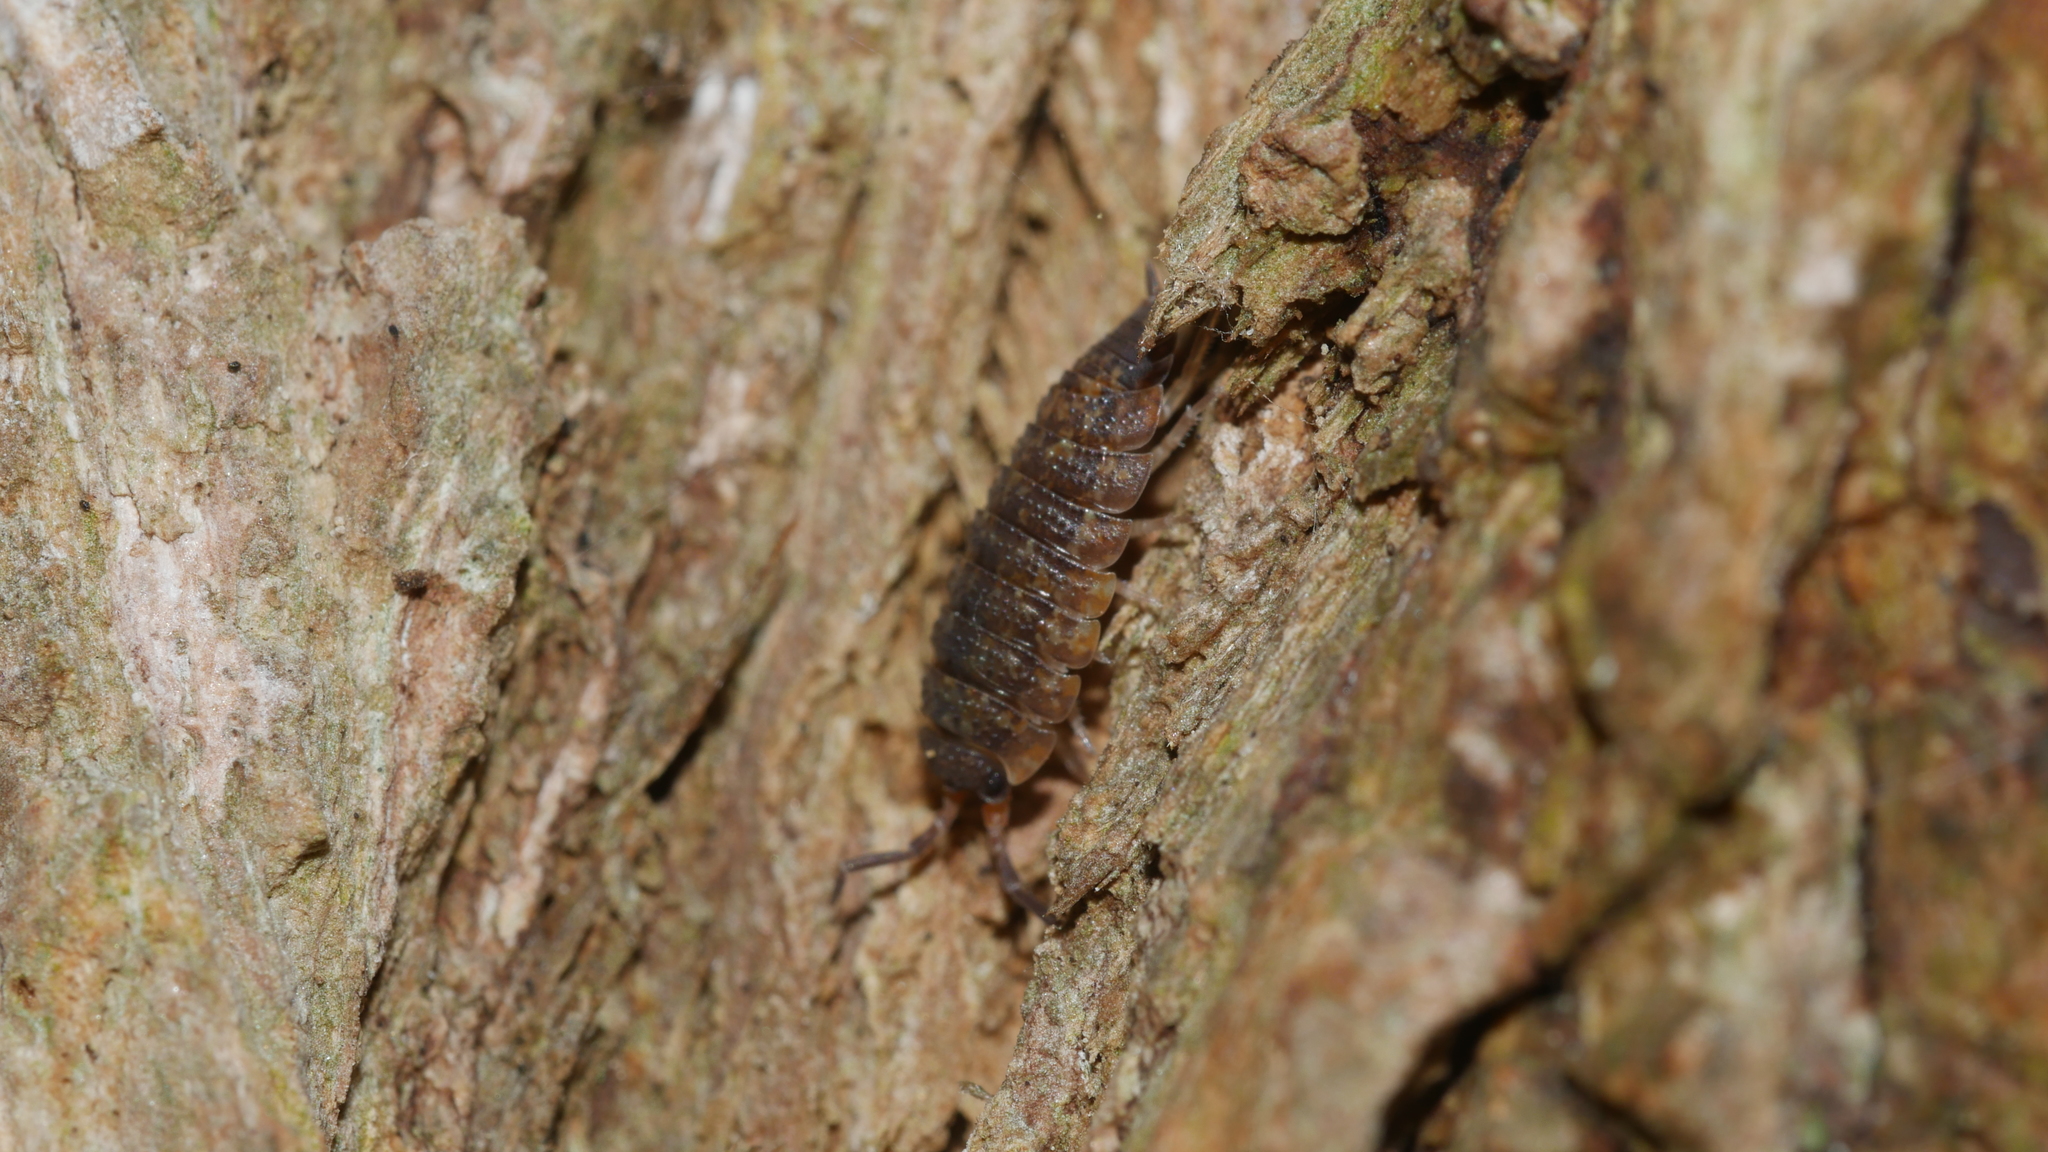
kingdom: Animalia
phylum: Arthropoda
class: Malacostraca
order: Isopoda
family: Porcellionidae
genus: Porcellio
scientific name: Porcellio scaber
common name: Common rough woodlouse
